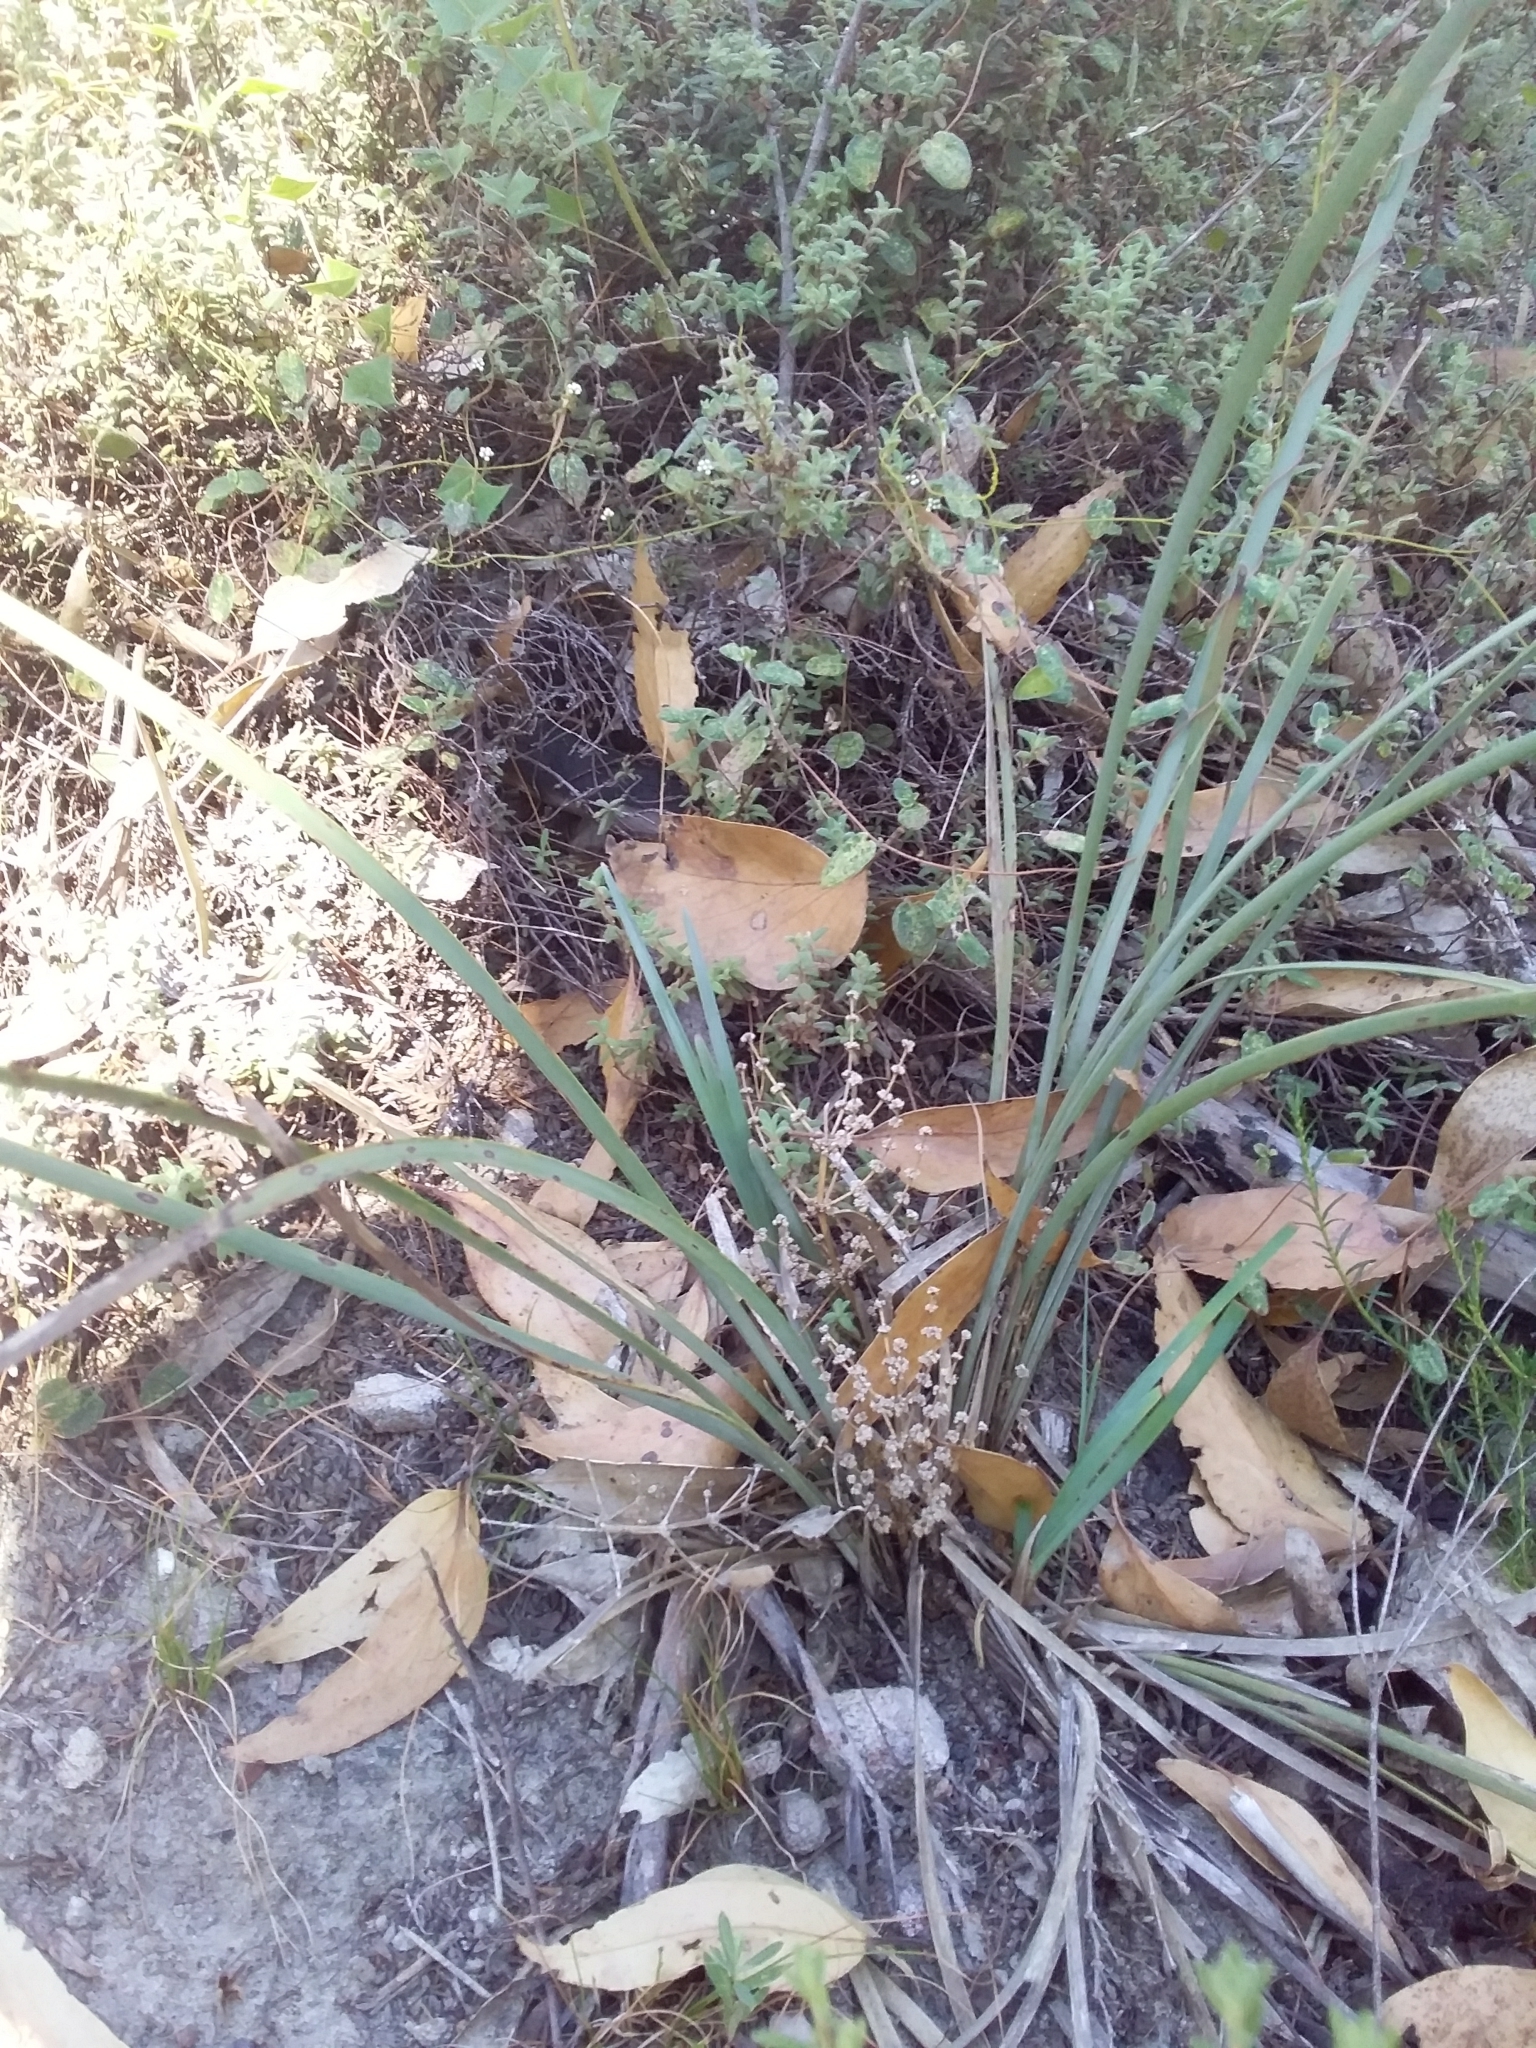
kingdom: Plantae
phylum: Tracheophyta
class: Liliopsida
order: Asparagales
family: Asparagaceae
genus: Lomandra
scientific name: Lomandra multiflora
